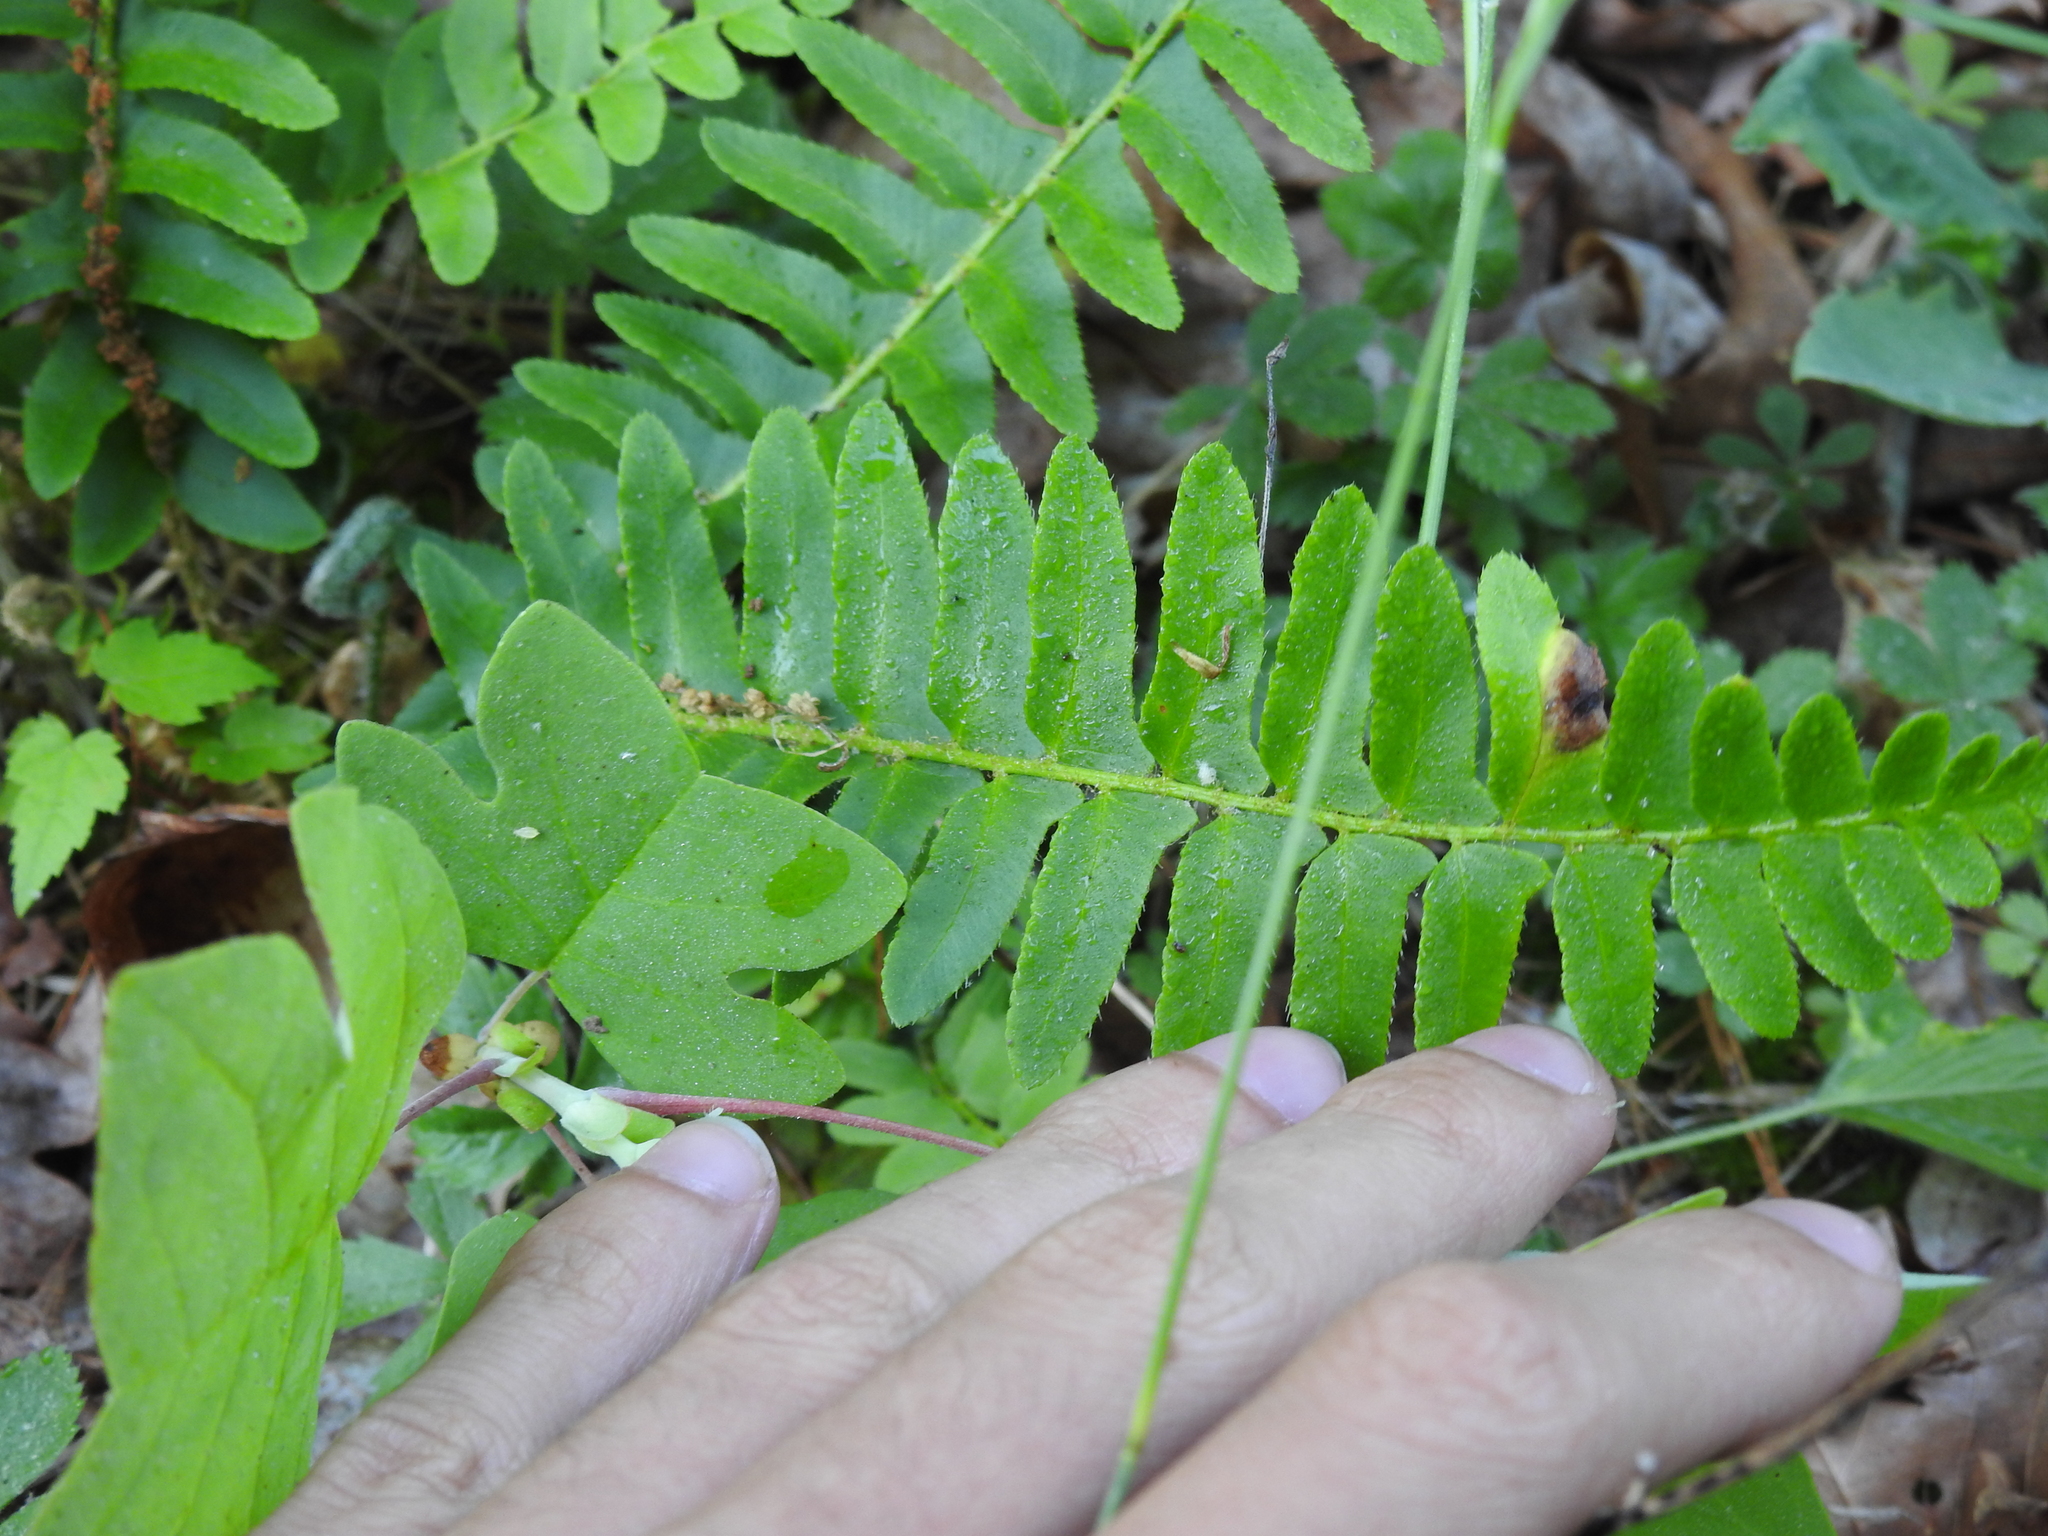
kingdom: Plantae
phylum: Tracheophyta
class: Polypodiopsida
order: Polypodiales
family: Dryopteridaceae
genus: Polystichum
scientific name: Polystichum acrostichoides
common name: Christmas fern
